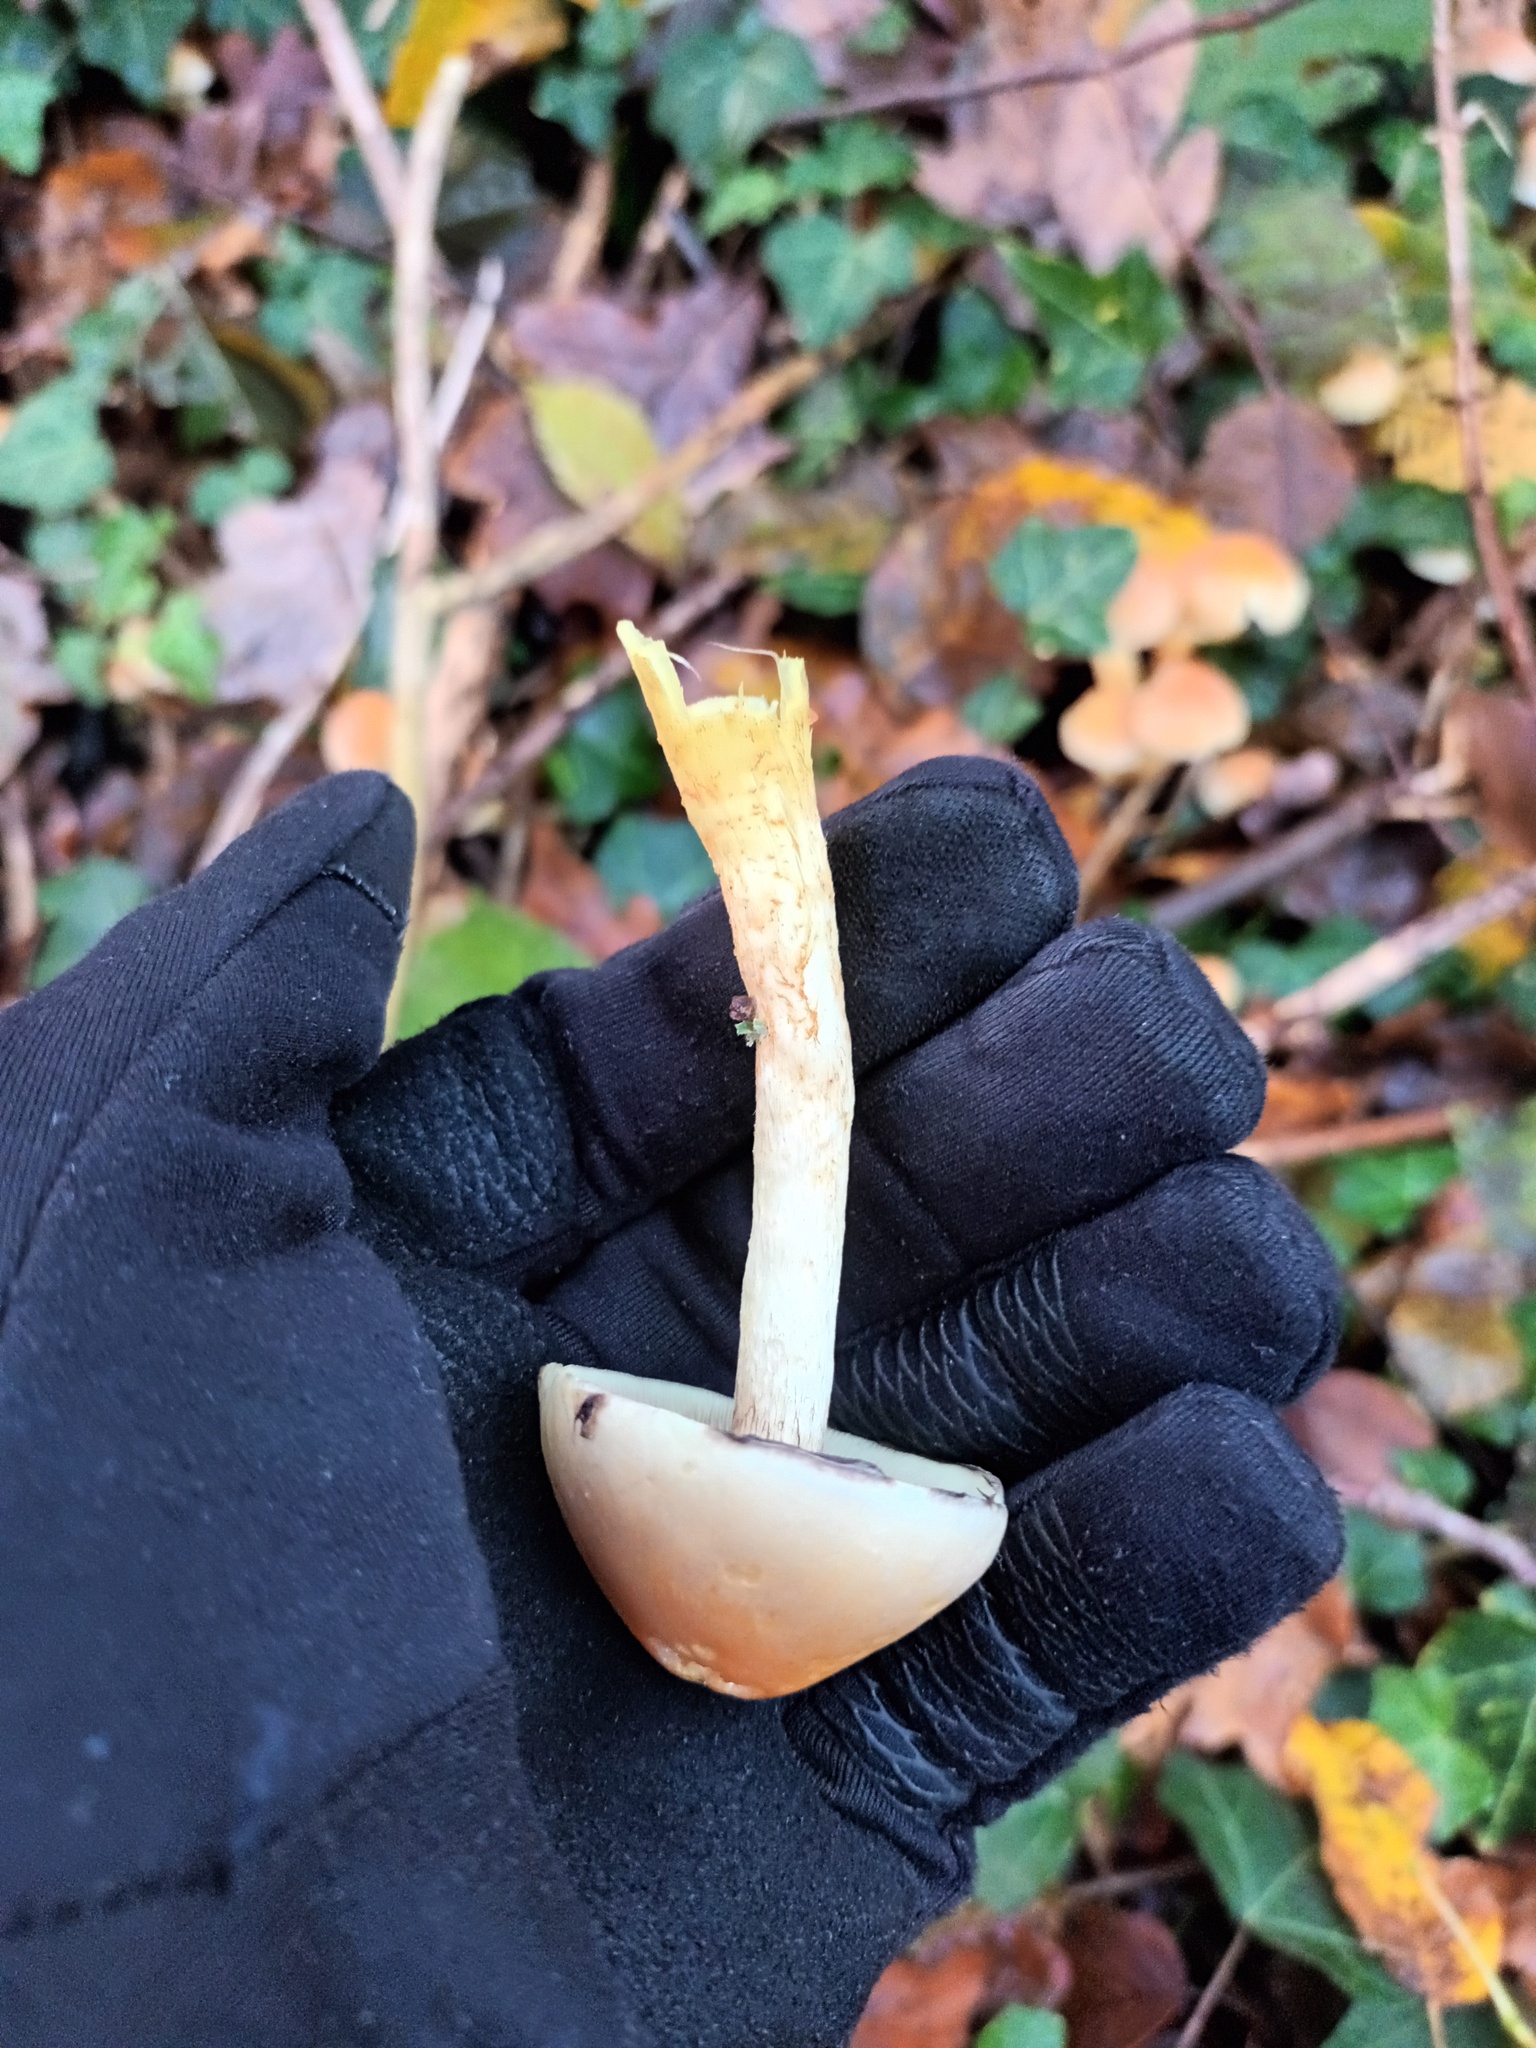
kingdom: Fungi
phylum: Basidiomycota
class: Agaricomycetes
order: Agaricales
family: Strophariaceae
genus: Hypholoma
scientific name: Hypholoma fasciculare
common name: Sulphur tuft
